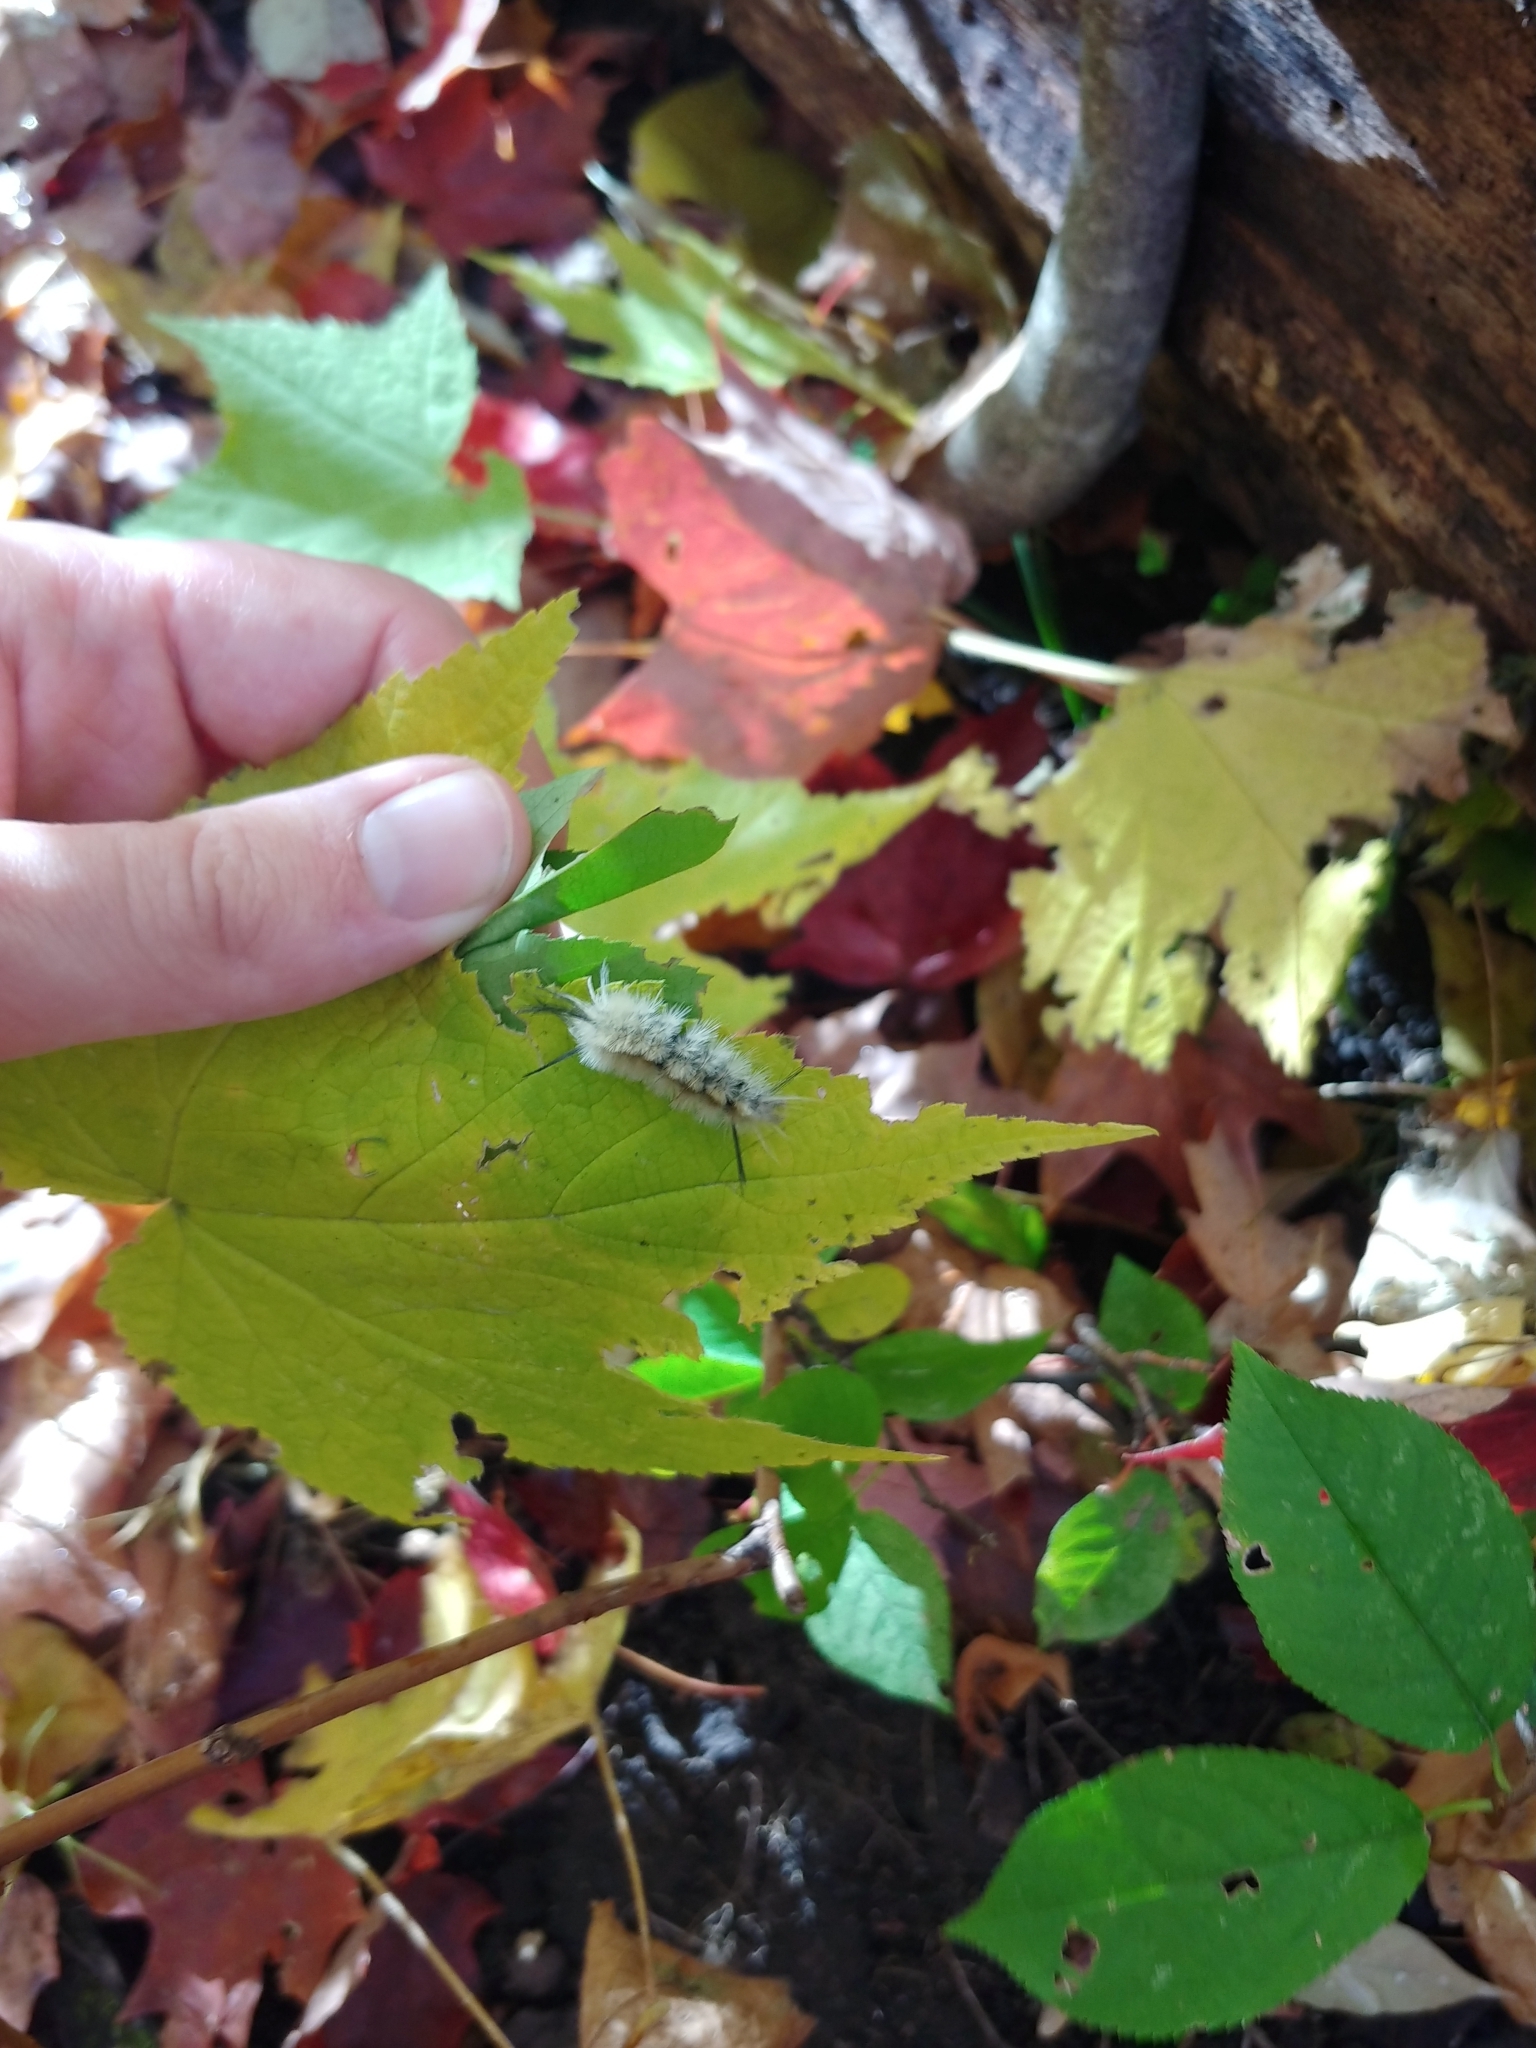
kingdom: Animalia
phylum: Arthropoda
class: Insecta
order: Lepidoptera
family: Erebidae
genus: Halysidota
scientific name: Halysidota tessellaris
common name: Banded tussock moth
